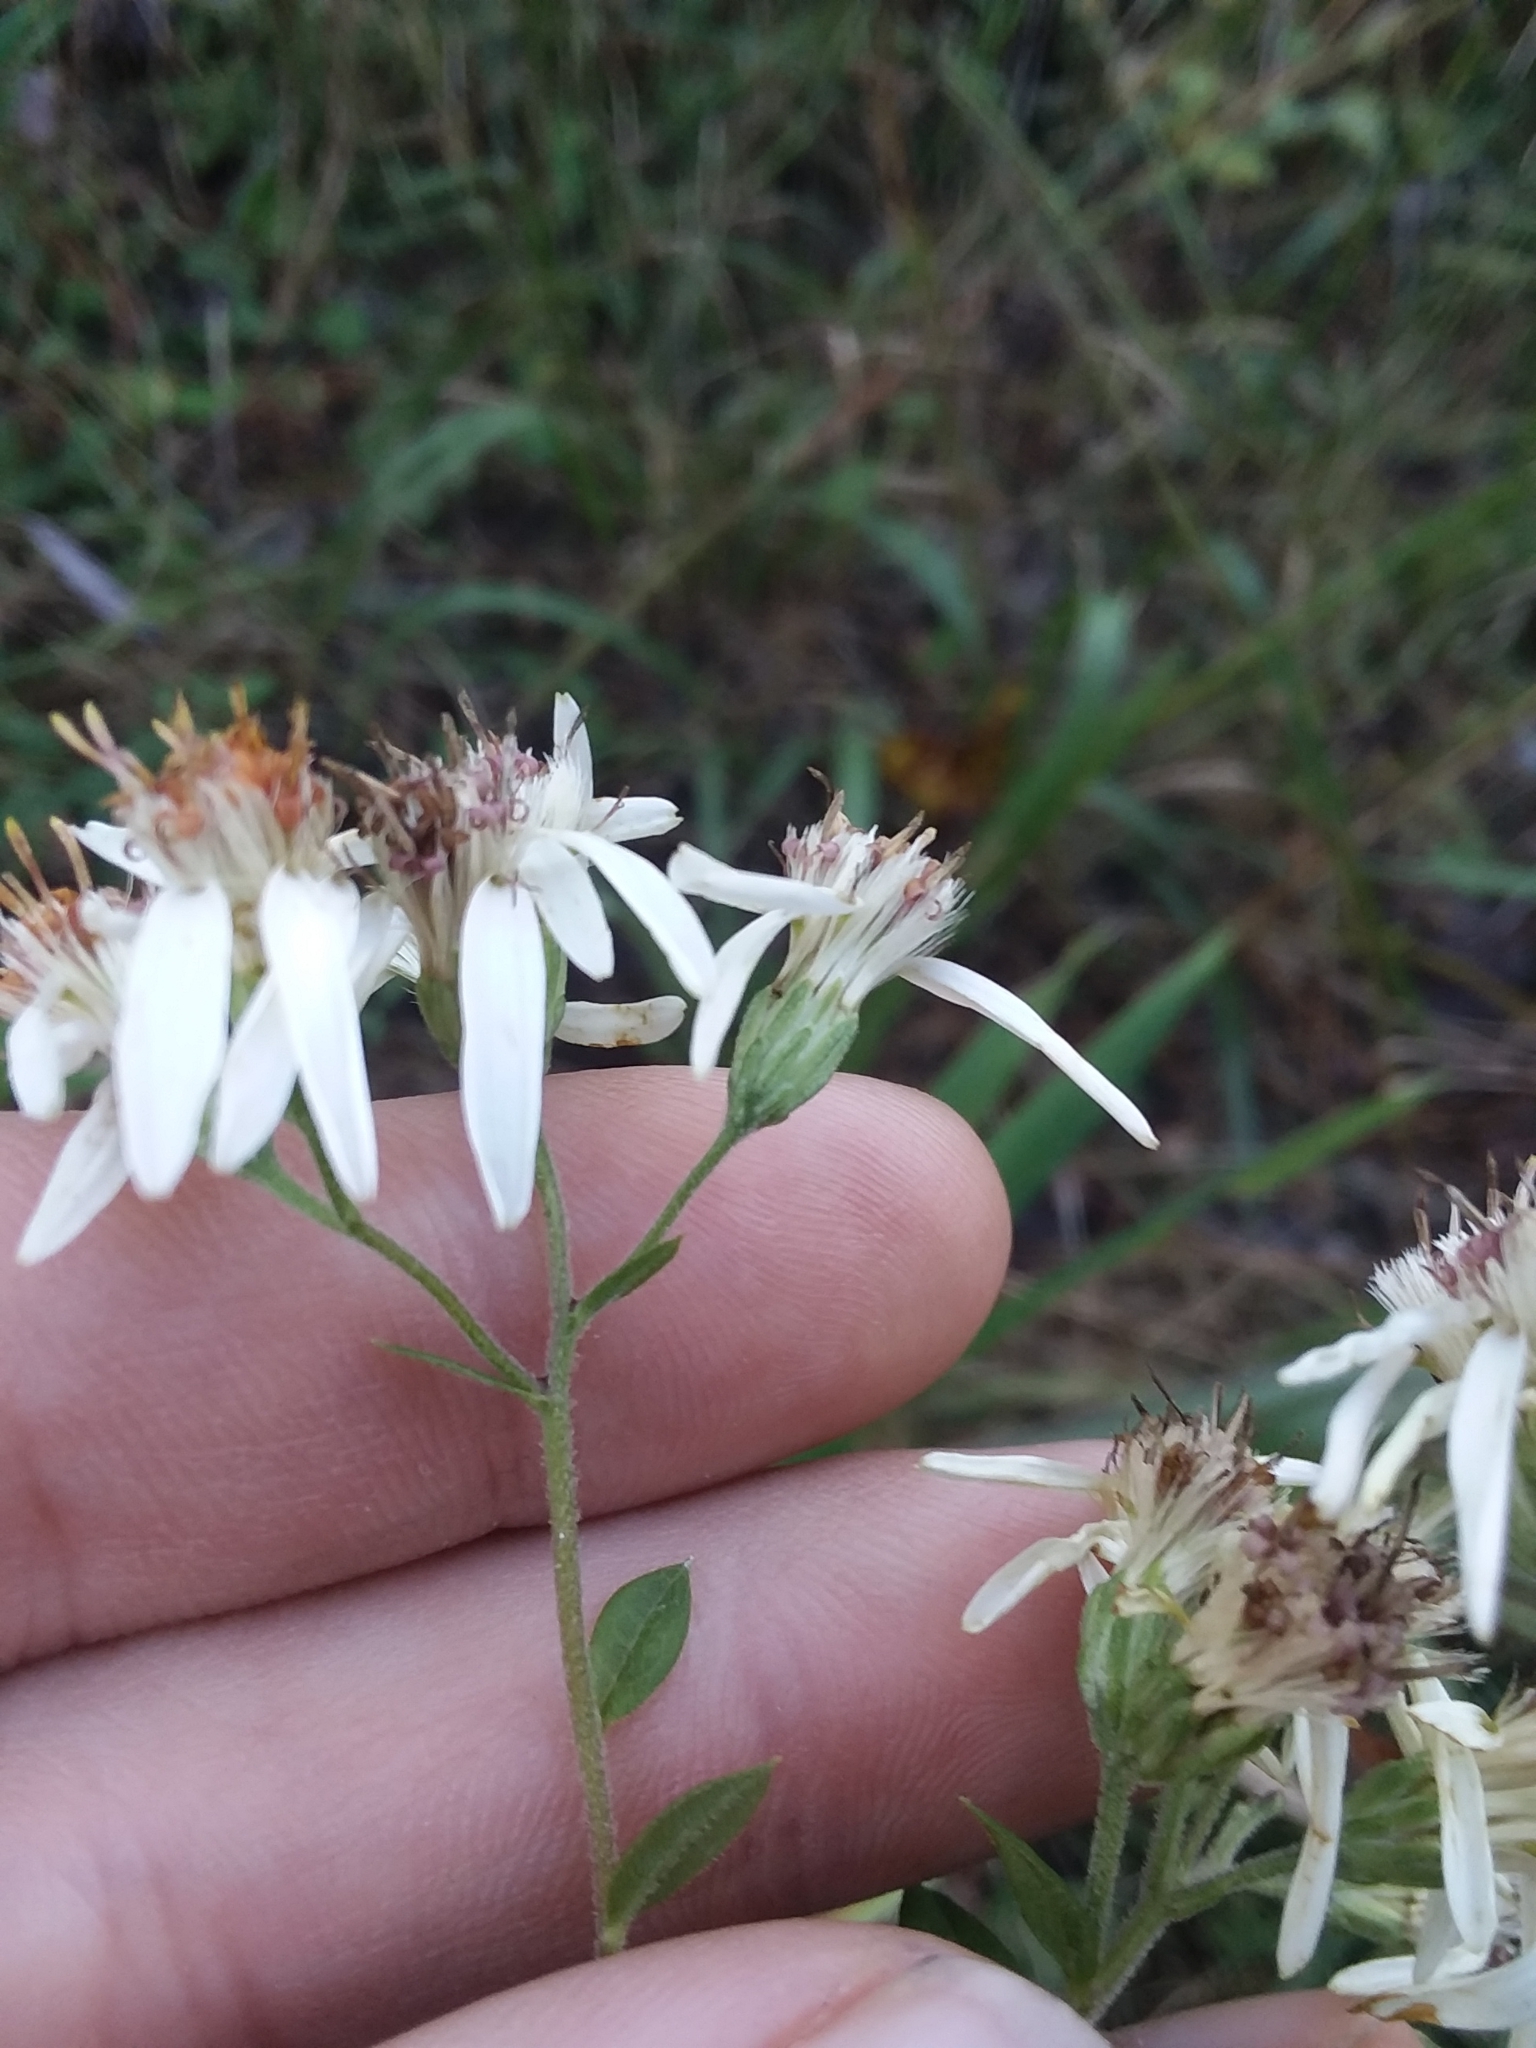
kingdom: Plantae
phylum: Tracheophyta
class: Magnoliopsida
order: Asterales
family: Asteraceae
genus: Doellingeria
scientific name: Doellingeria sericocarpoides
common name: Southern tall flat-top aster
